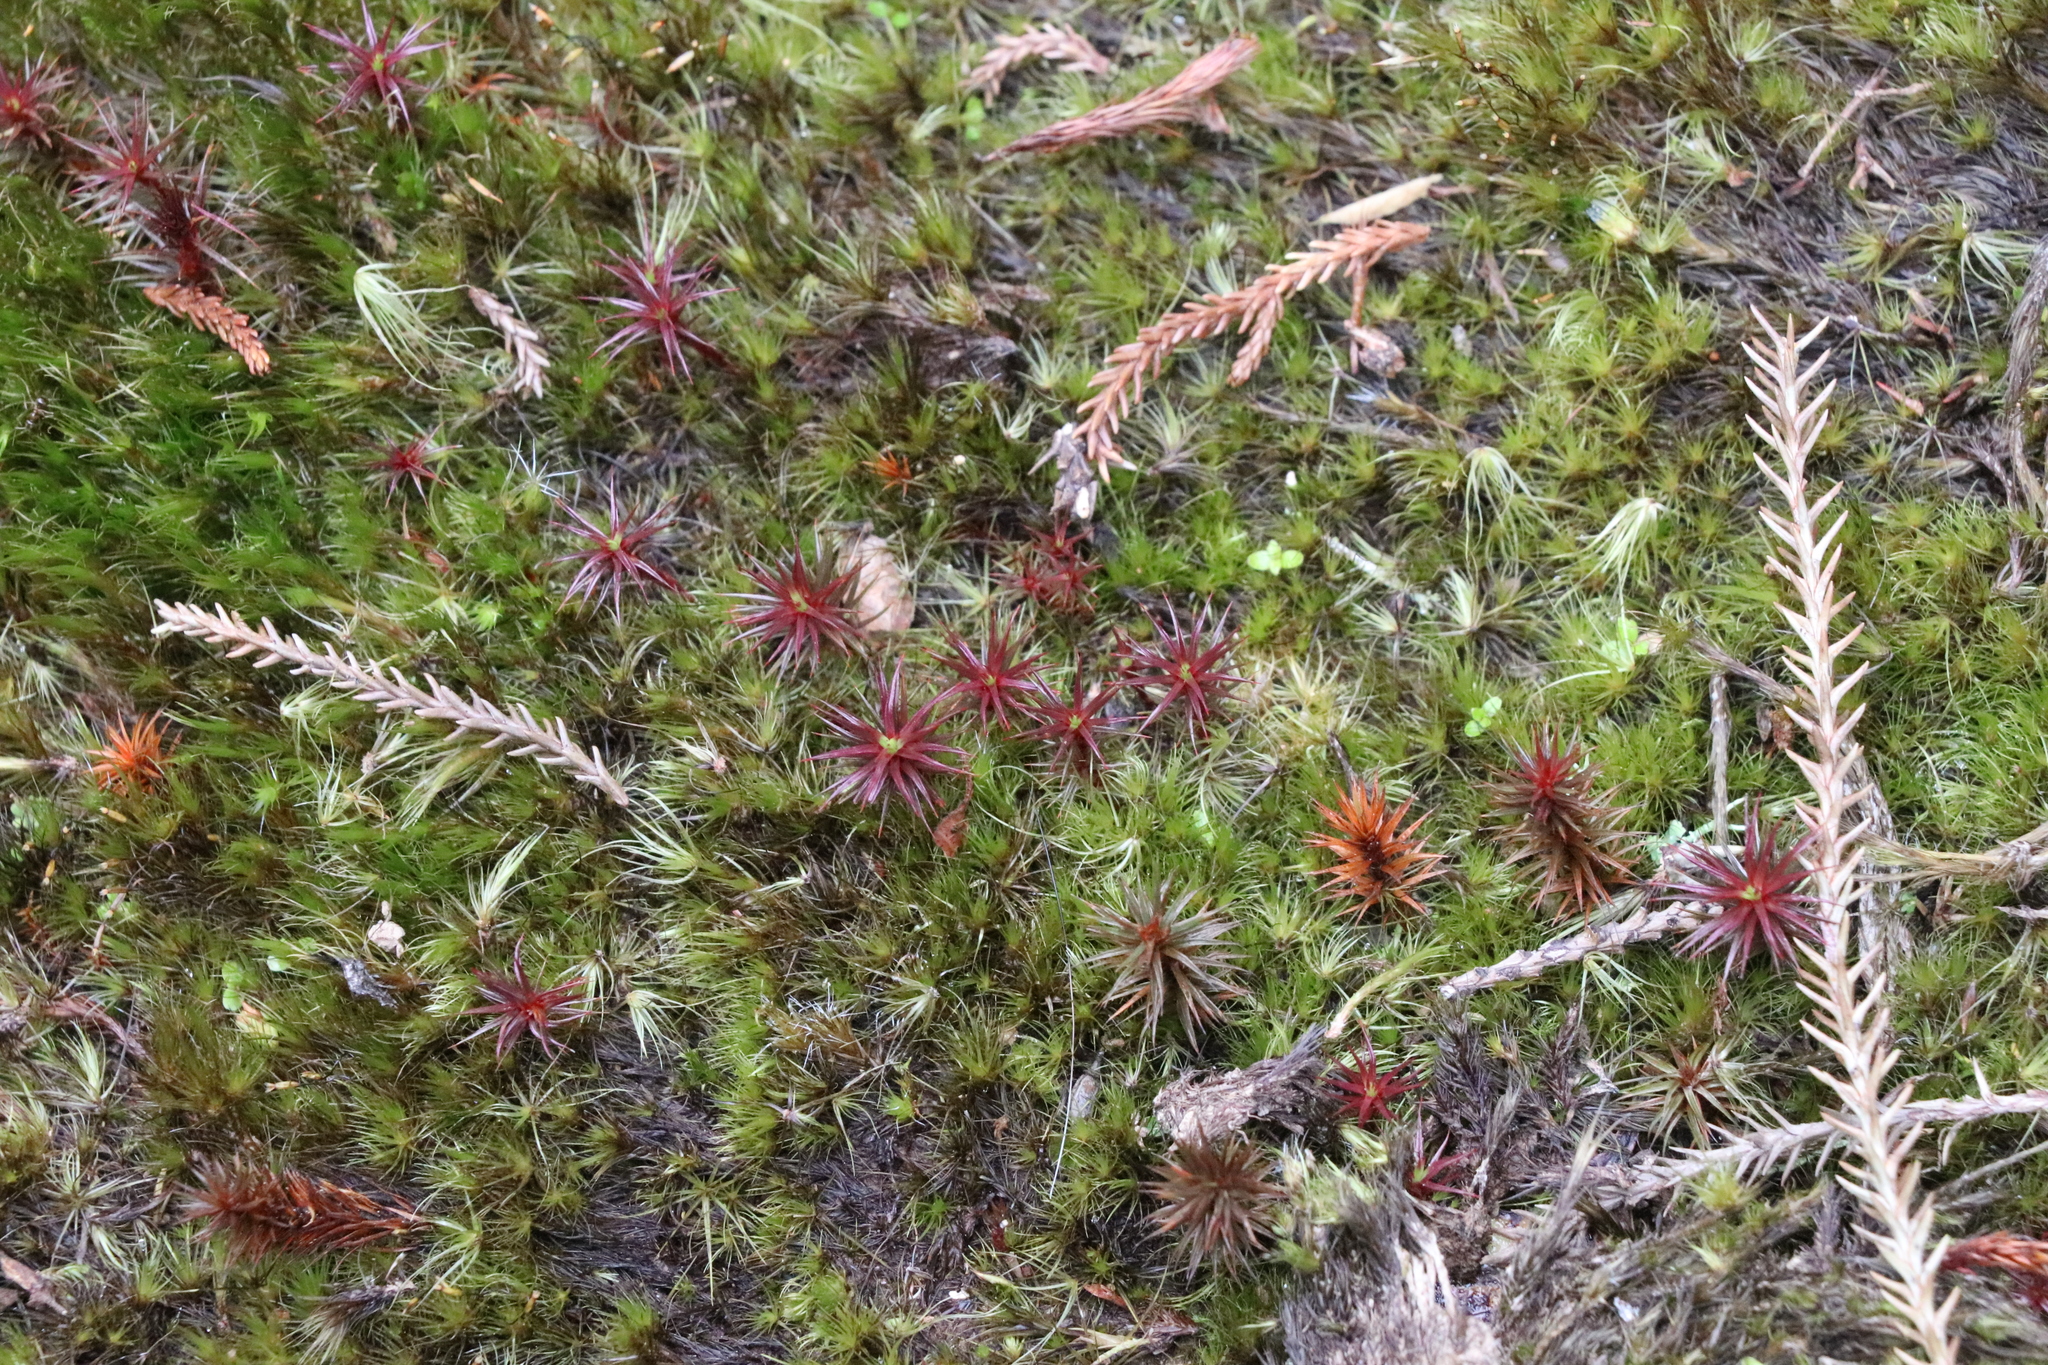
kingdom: Plantae
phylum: Bryophyta
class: Polytrichopsida
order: Polytrichales
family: Polytrichaceae
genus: Polytrichum
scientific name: Polytrichum juniperinum
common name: Juniper haircap moss
